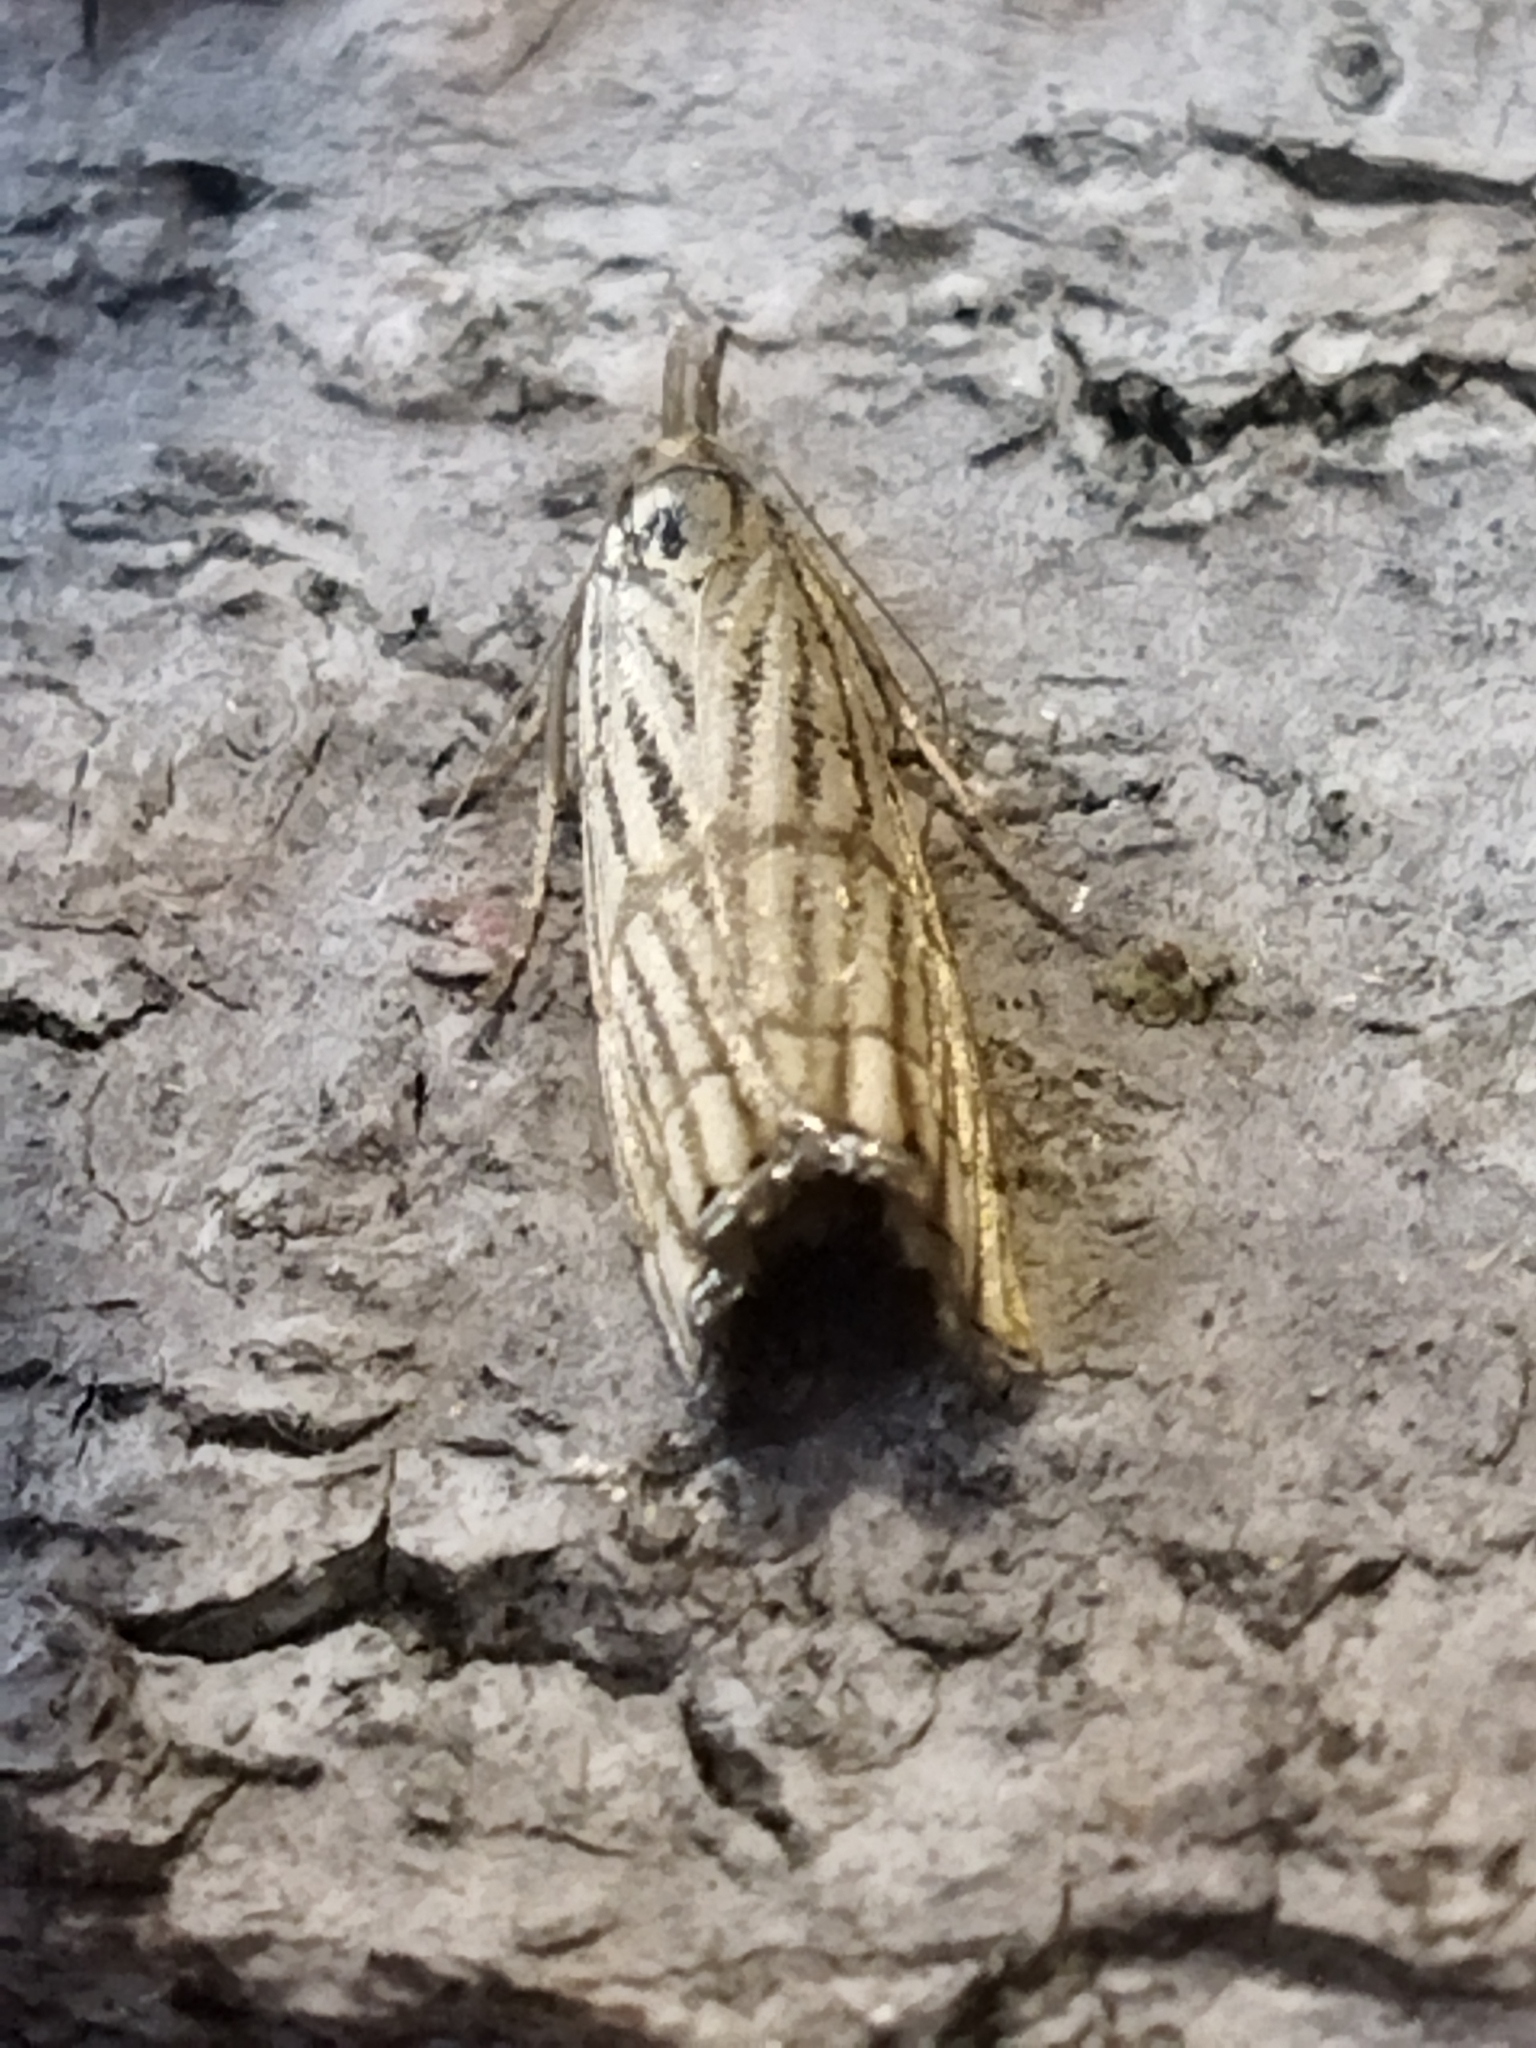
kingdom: Animalia
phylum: Arthropoda
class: Insecta
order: Lepidoptera
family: Crambidae
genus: Chrysocrambus
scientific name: Chrysocrambus linetella
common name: Orange-bar grass-veneer
